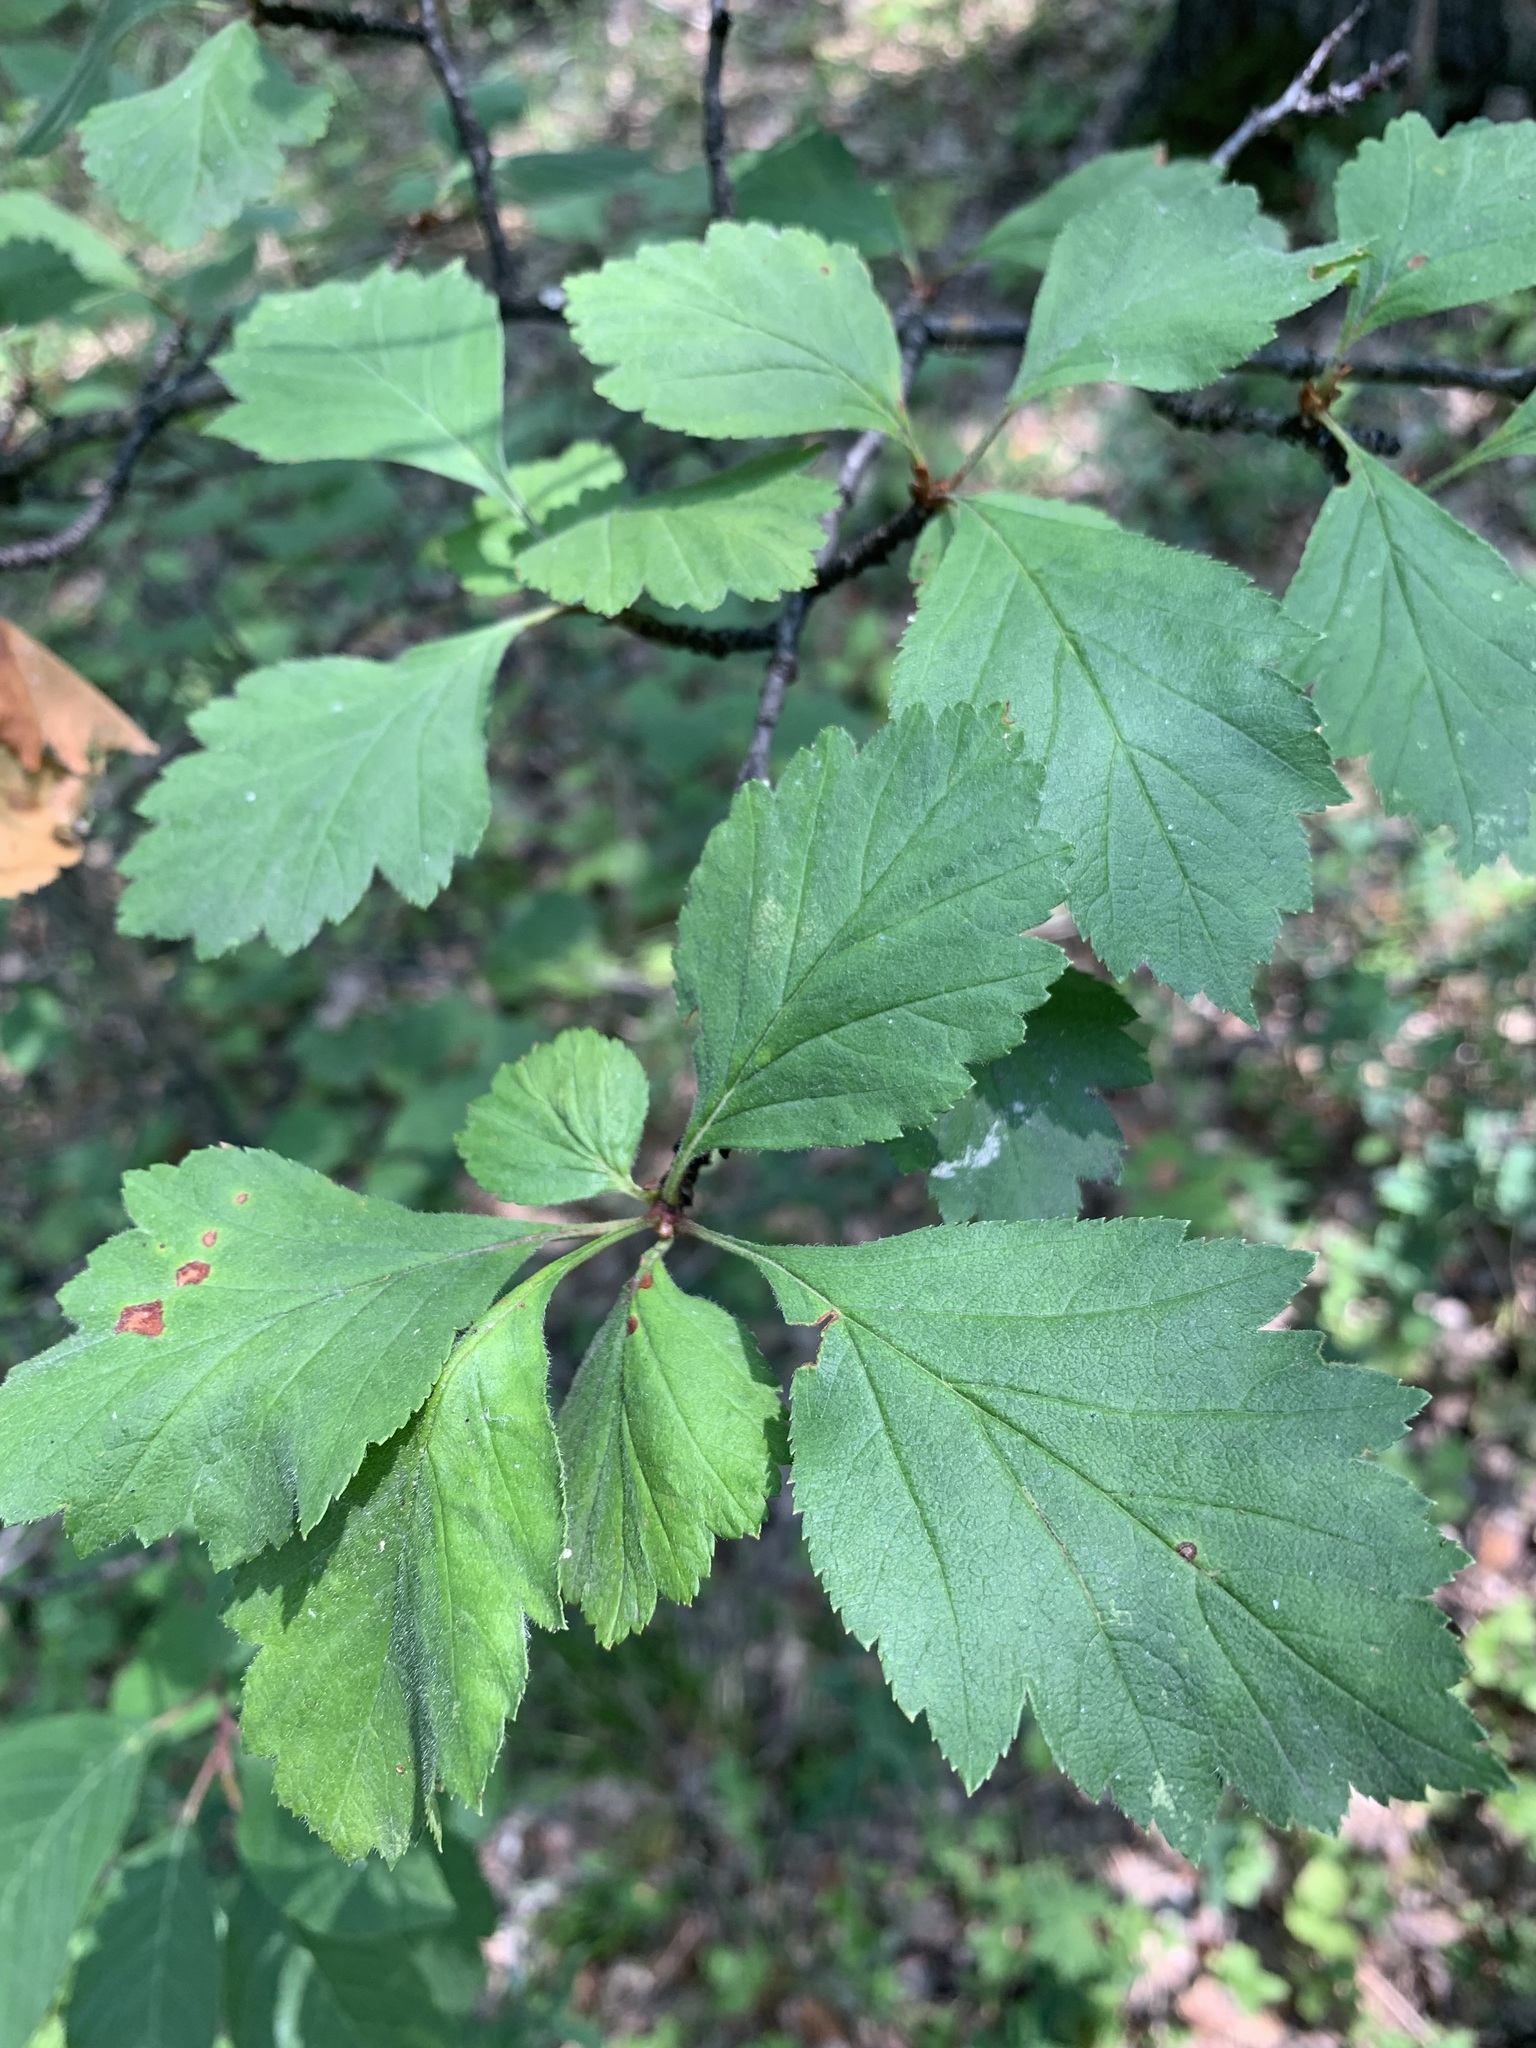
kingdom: Plantae
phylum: Tracheophyta
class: Magnoliopsida
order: Rosales
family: Rosaceae
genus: Crataegus
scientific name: Crataegus sanguinea
